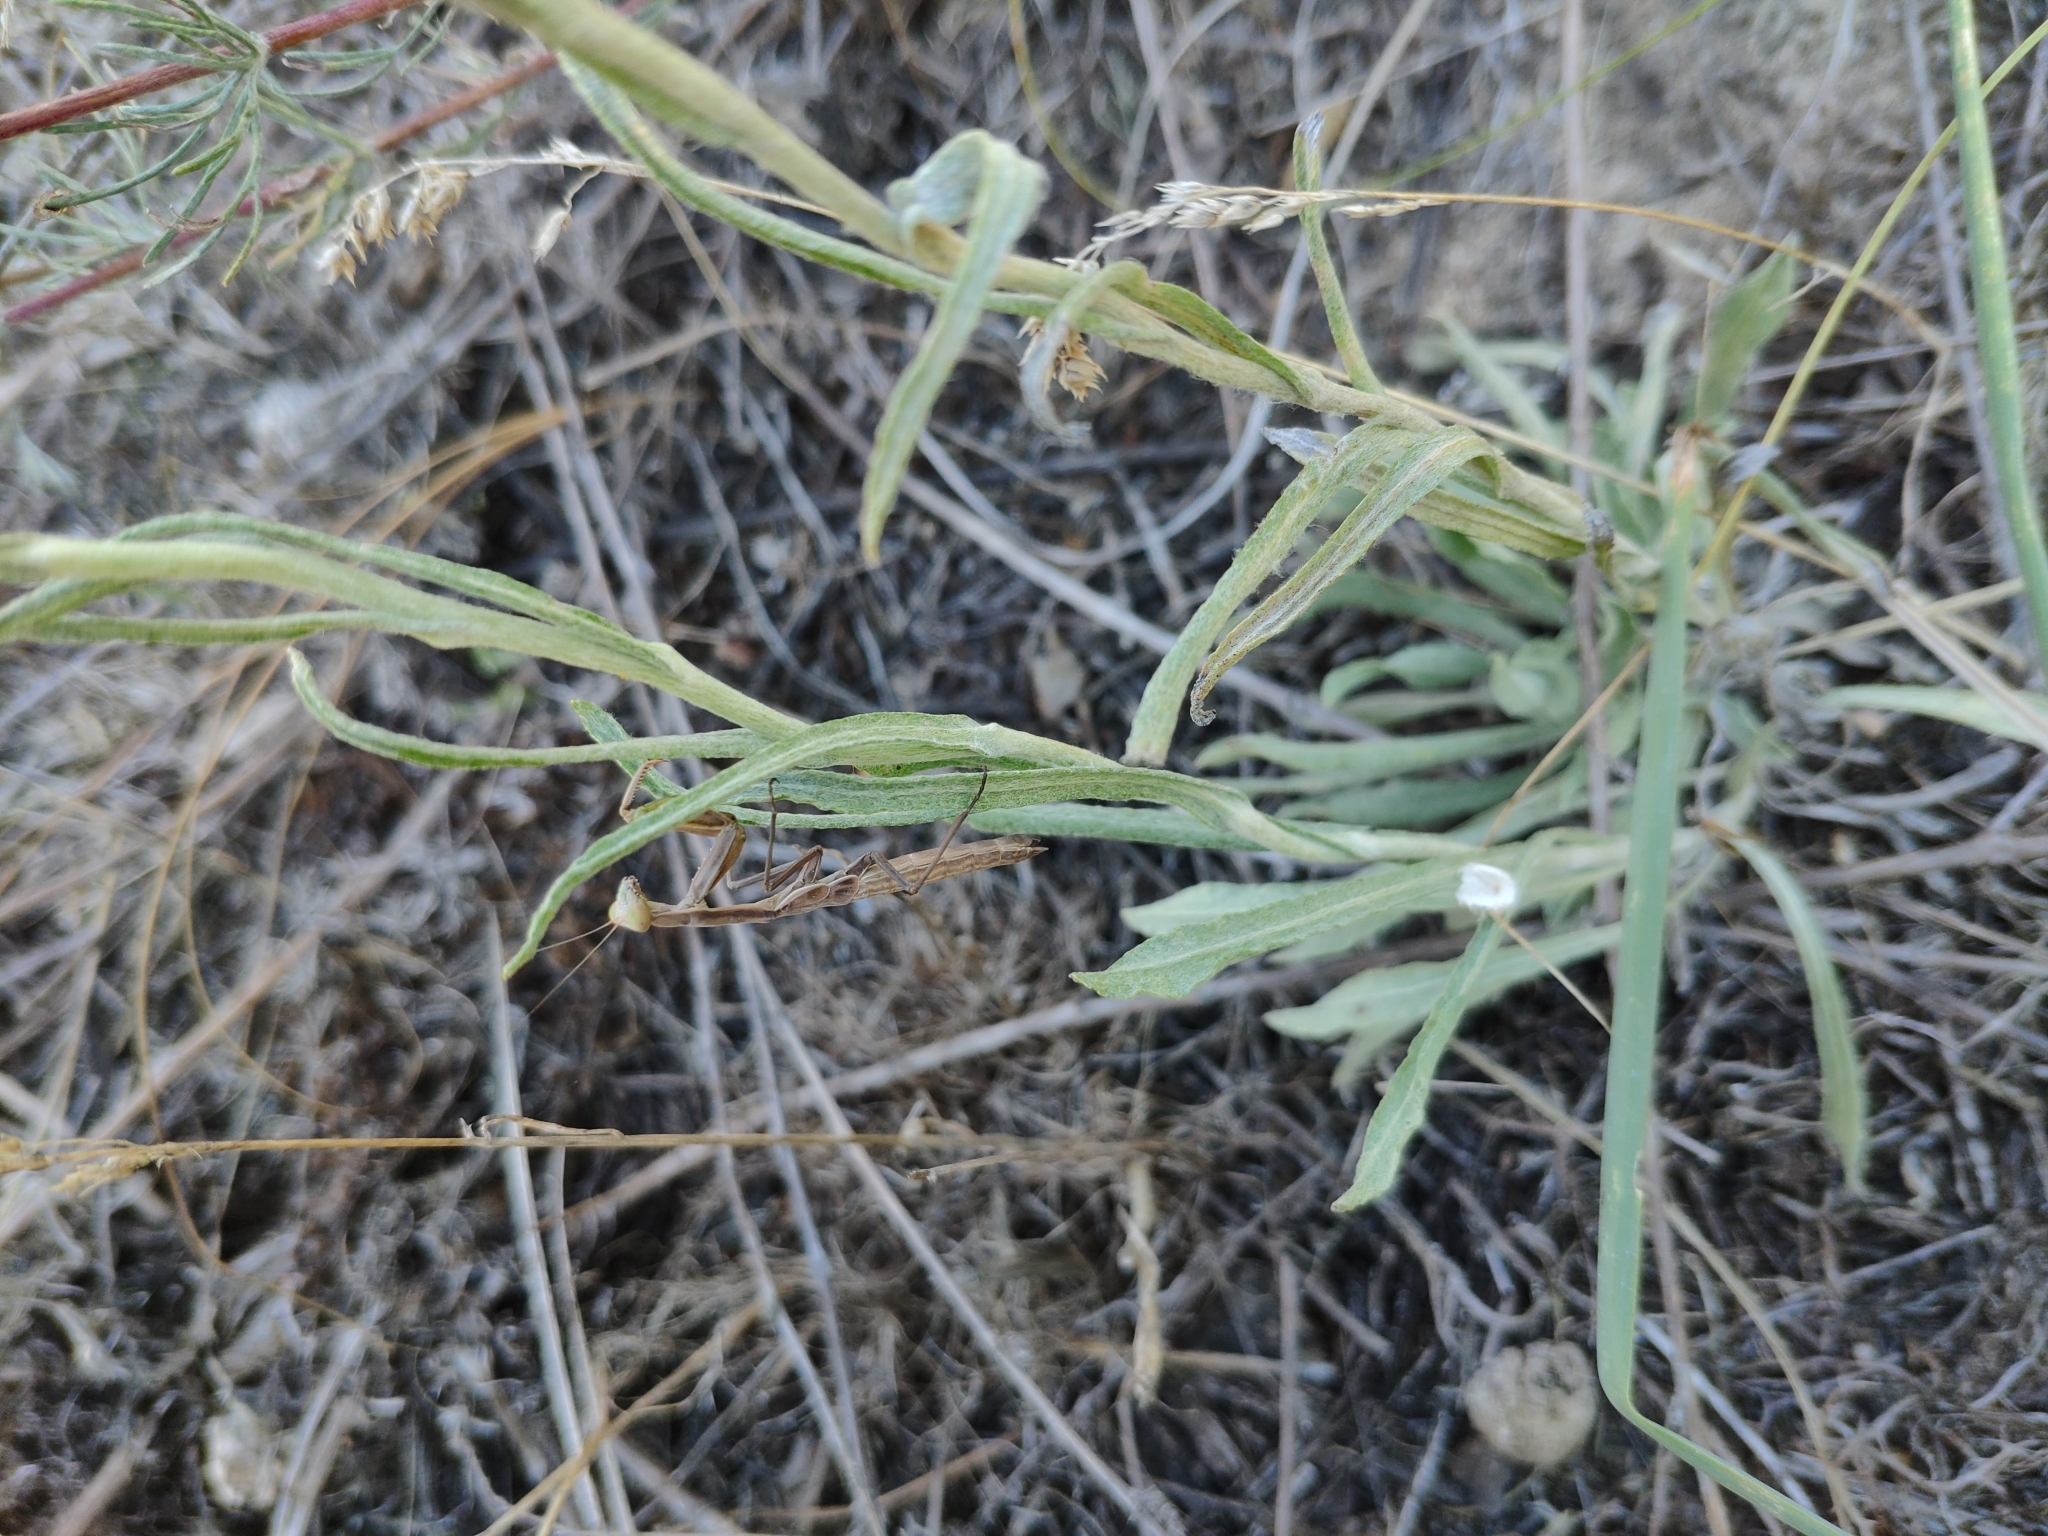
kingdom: Animalia
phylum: Arthropoda
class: Insecta
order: Mantodea
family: Eremiaphilidae
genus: Iris
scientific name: Iris polystictica
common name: Dot-winged mantis
